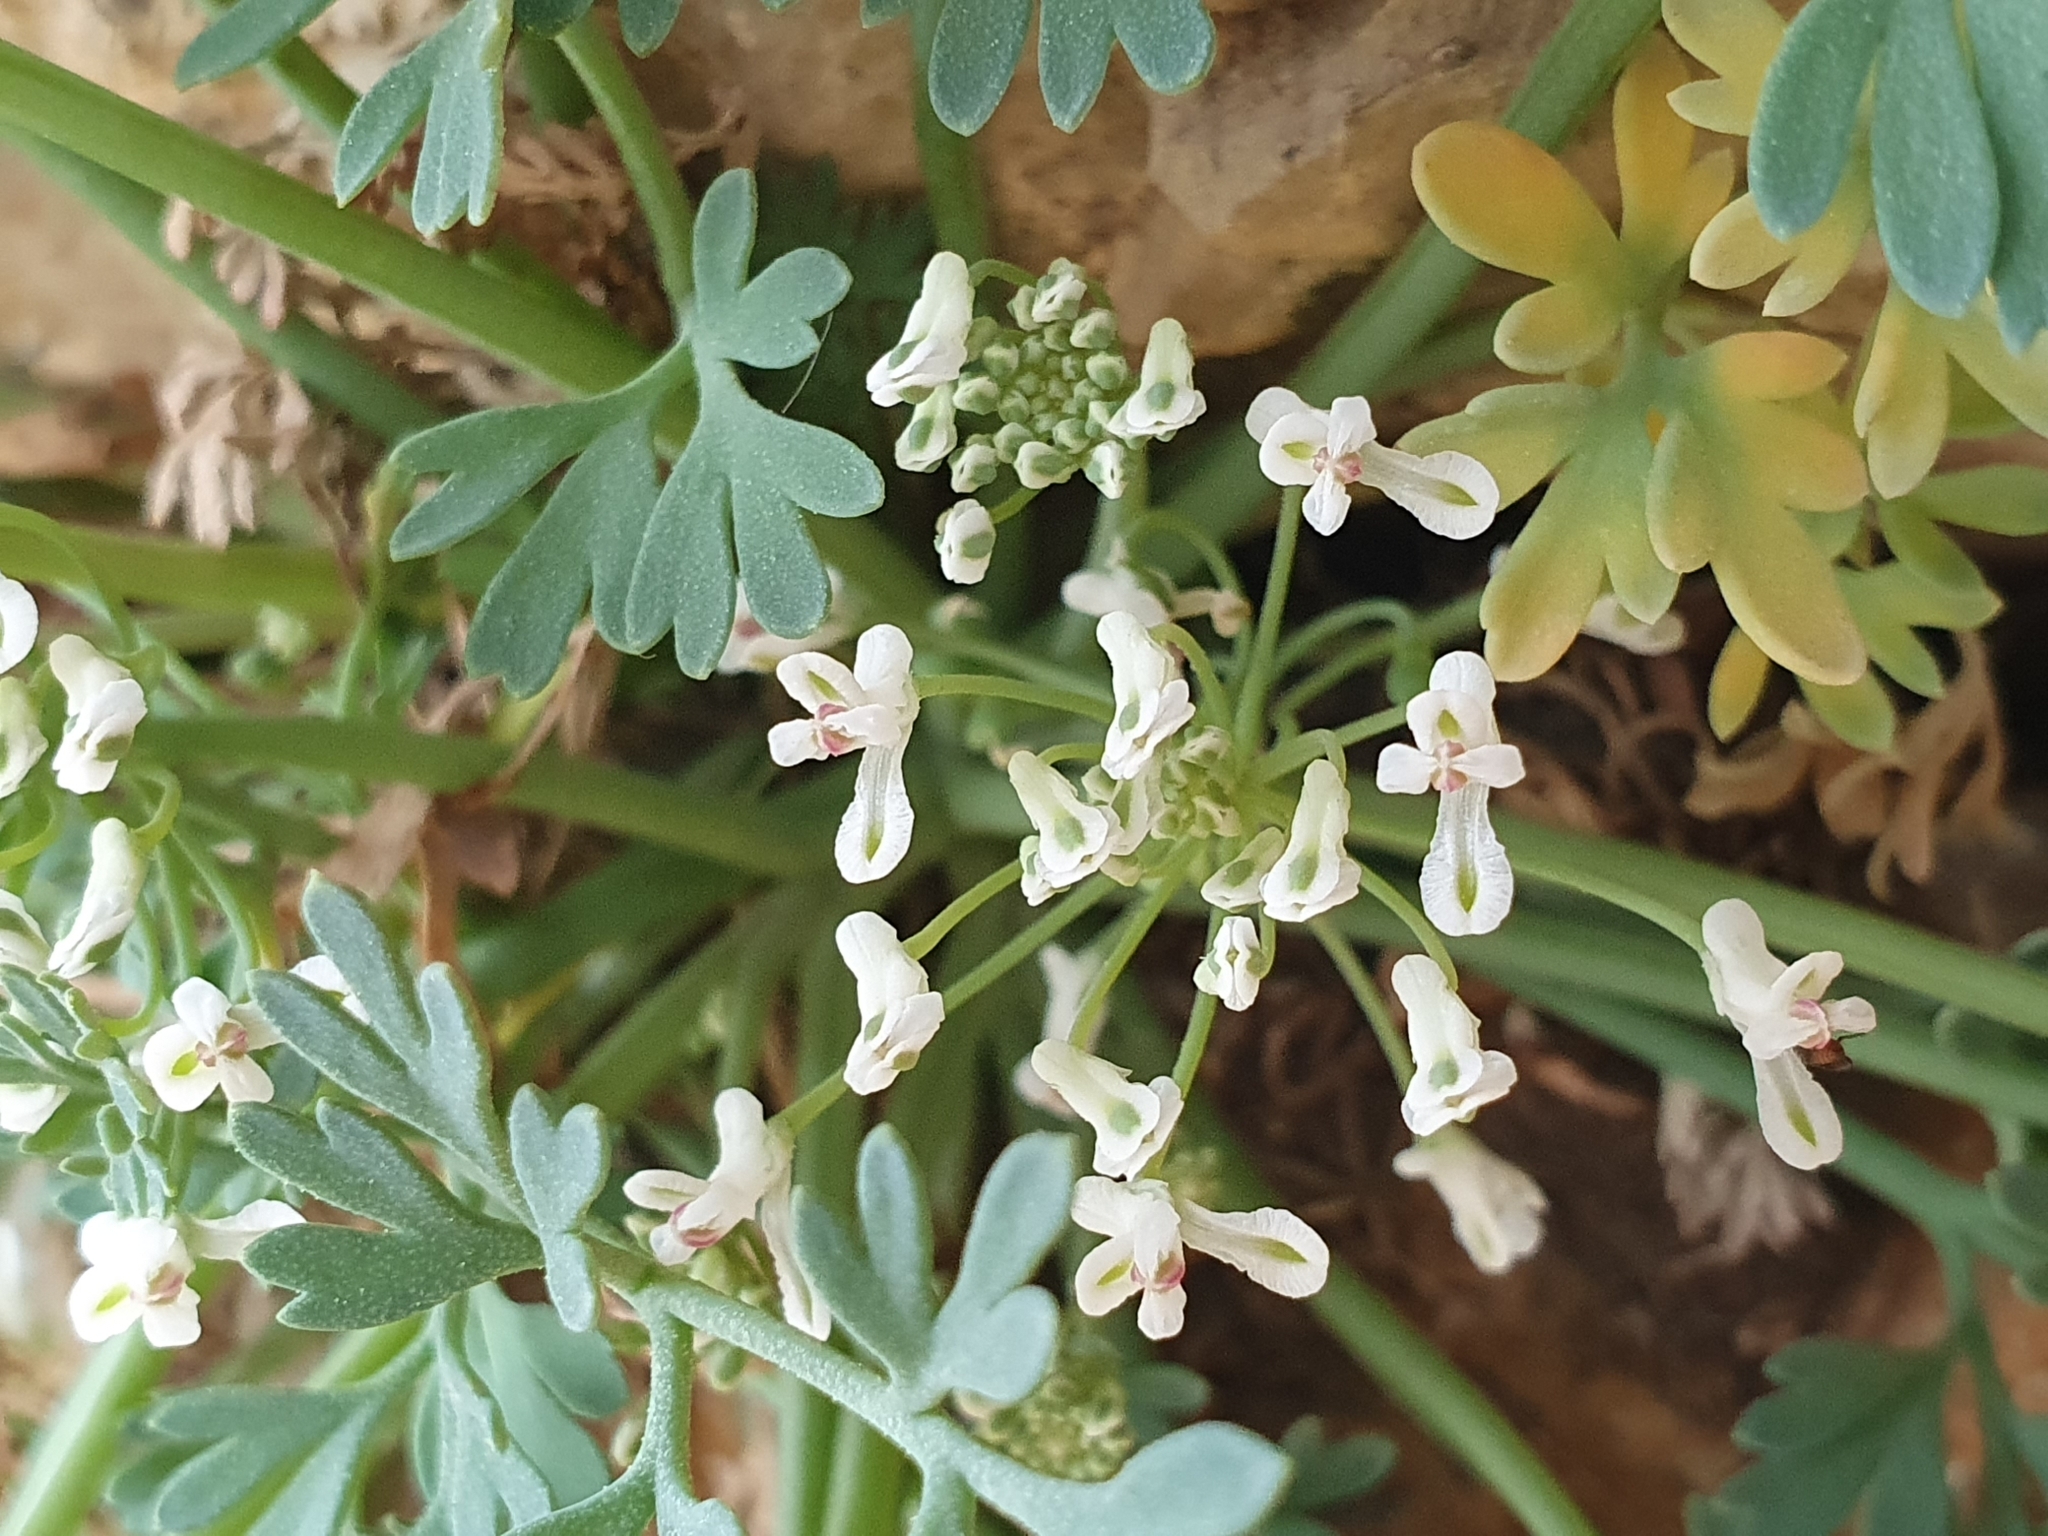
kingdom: Plantae
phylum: Tracheophyta
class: Magnoliopsida
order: Ranunculales
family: Papaveraceae
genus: Rupicapnos
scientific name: Rupicapnos numidica
